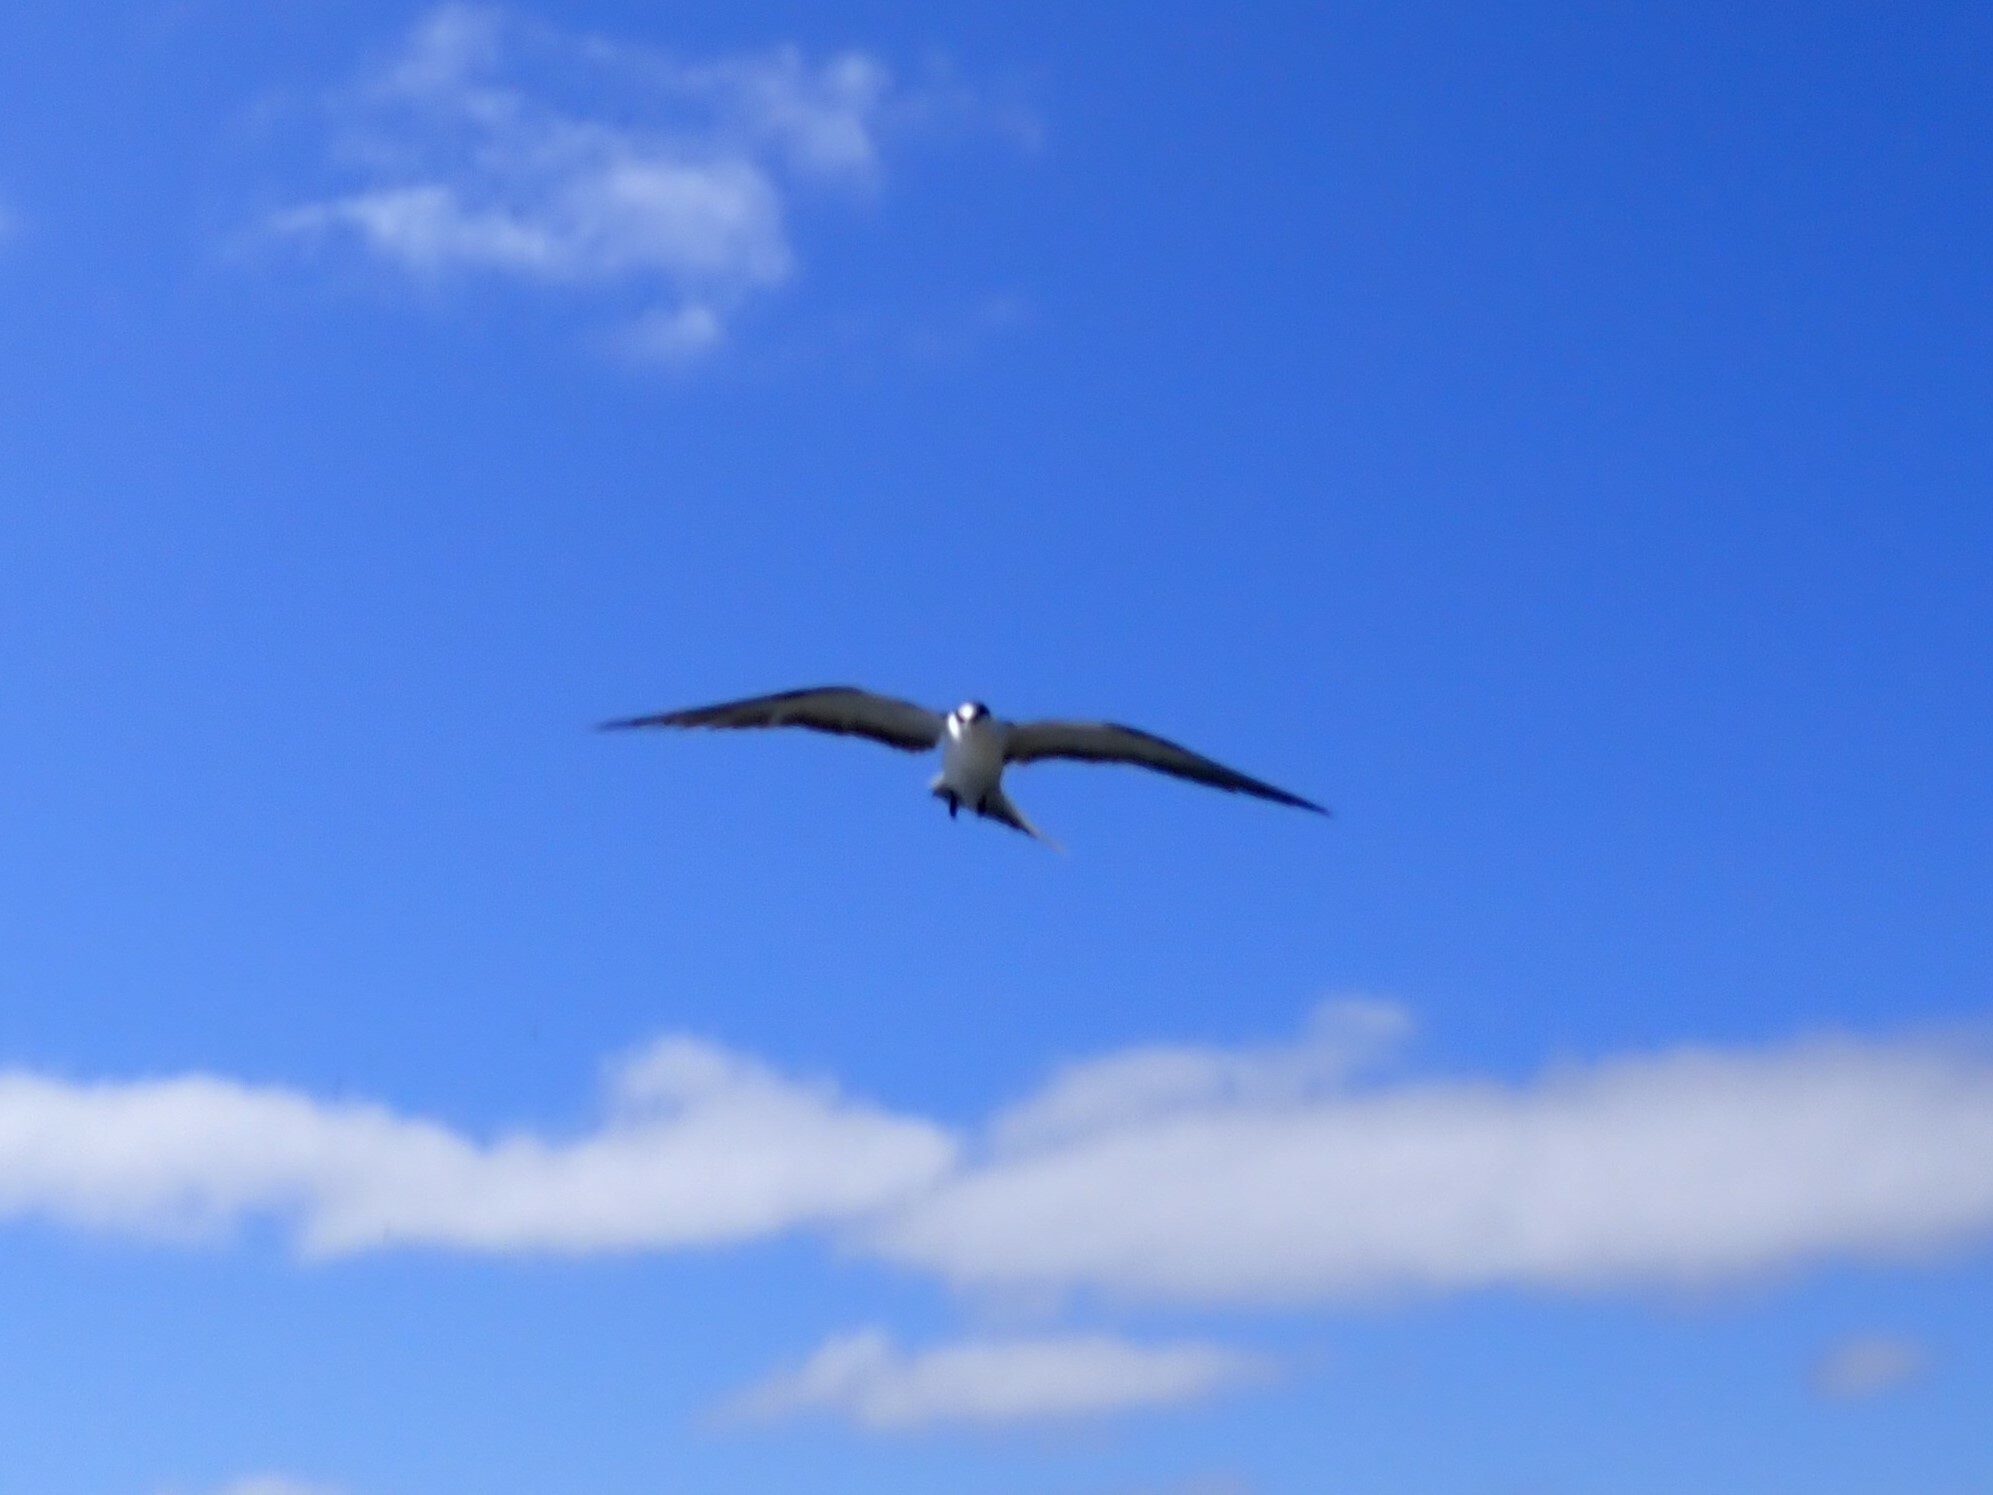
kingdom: Animalia
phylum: Chordata
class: Aves
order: Charadriiformes
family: Laridae
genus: Onychoprion
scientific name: Onychoprion fuscatus
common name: Sooty tern
